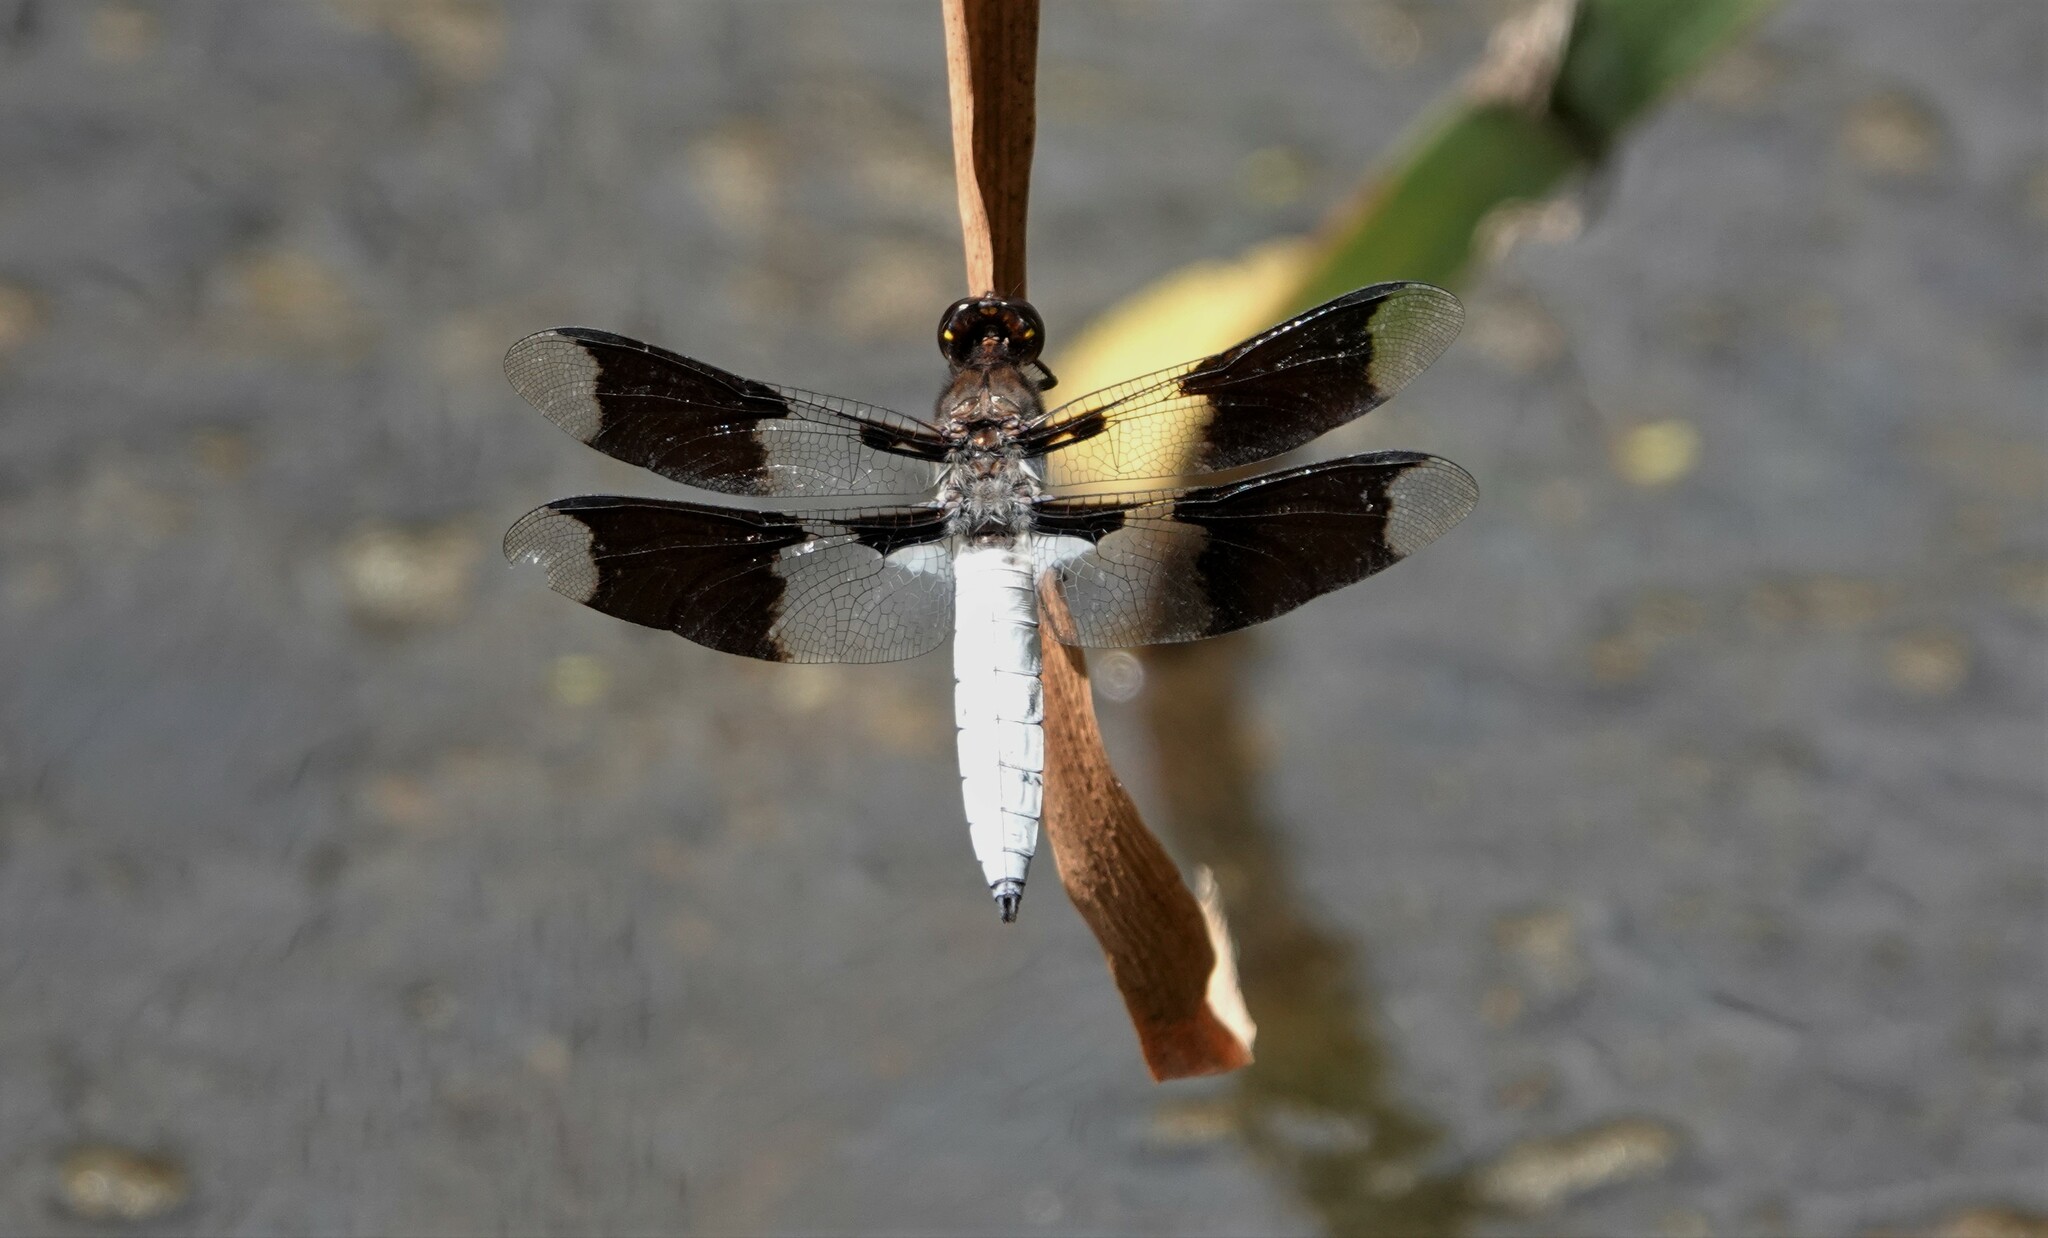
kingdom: Animalia
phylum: Arthropoda
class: Insecta
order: Odonata
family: Libellulidae
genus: Plathemis
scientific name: Plathemis lydia
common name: Common whitetail
